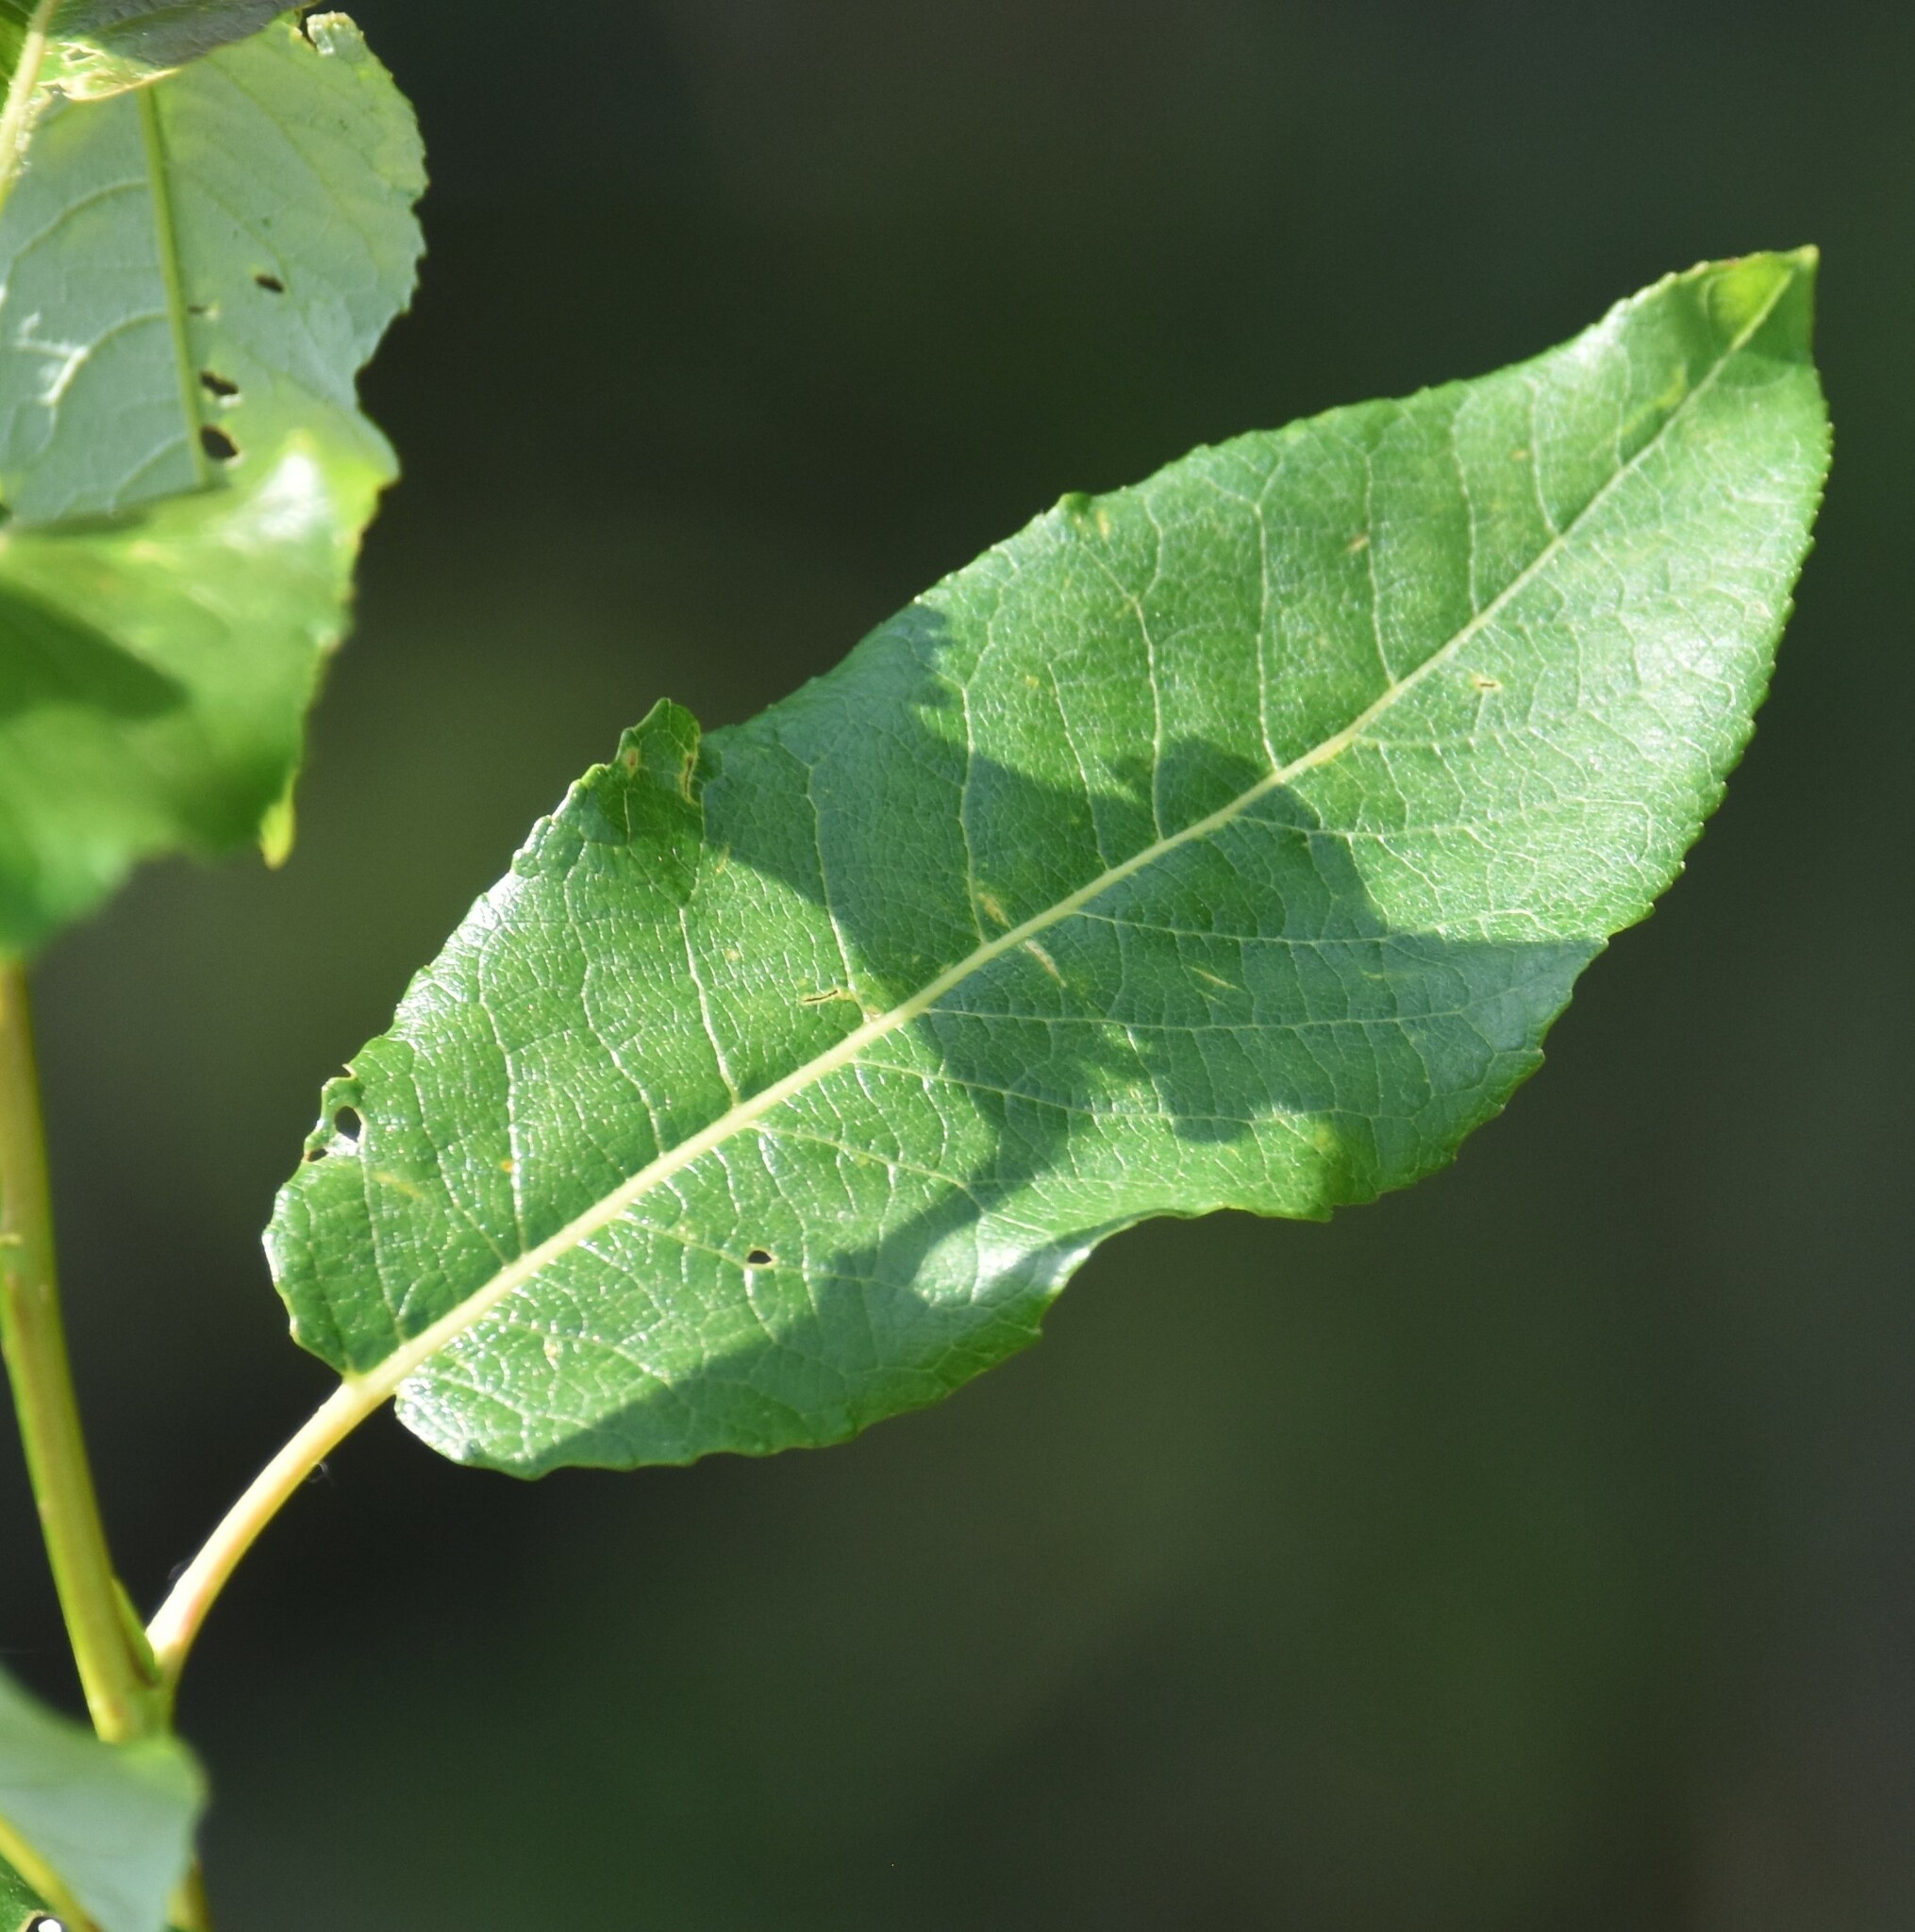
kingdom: Plantae
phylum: Tracheophyta
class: Magnoliopsida
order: Malpighiales
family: Salicaceae
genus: Salix
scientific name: Salix pyrifolia
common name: Balsam willow
